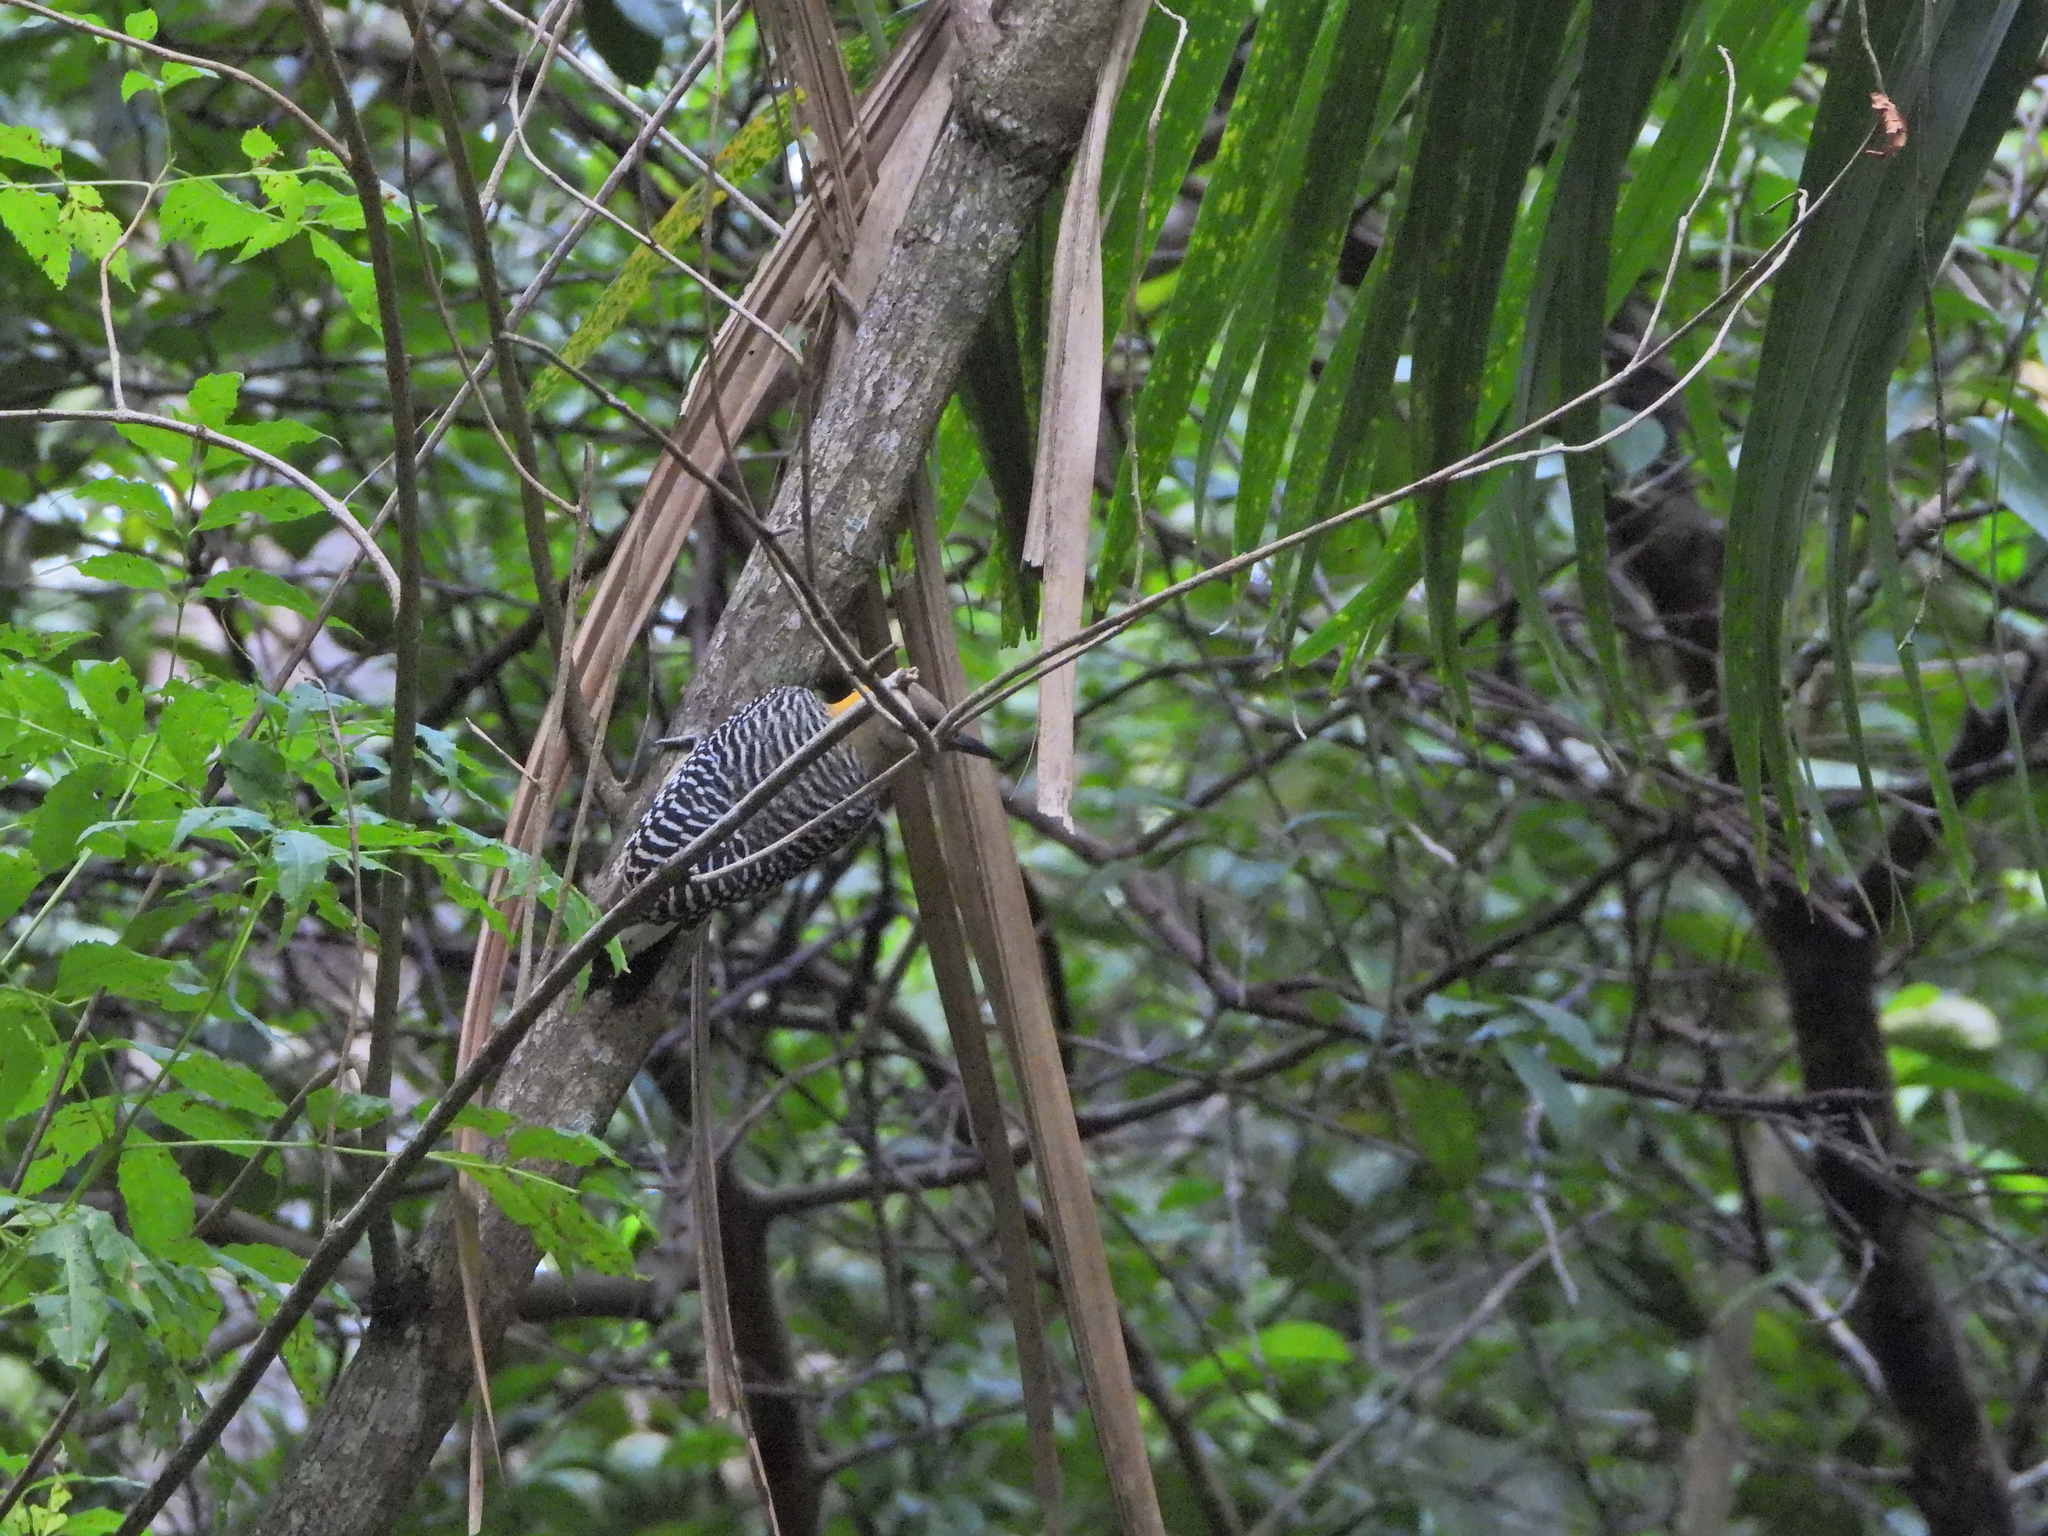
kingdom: Animalia
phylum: Chordata
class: Aves
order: Piciformes
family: Picidae
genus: Melanerpes
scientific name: Melanerpes hoffmannii
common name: Hoffmann's woodpecker
